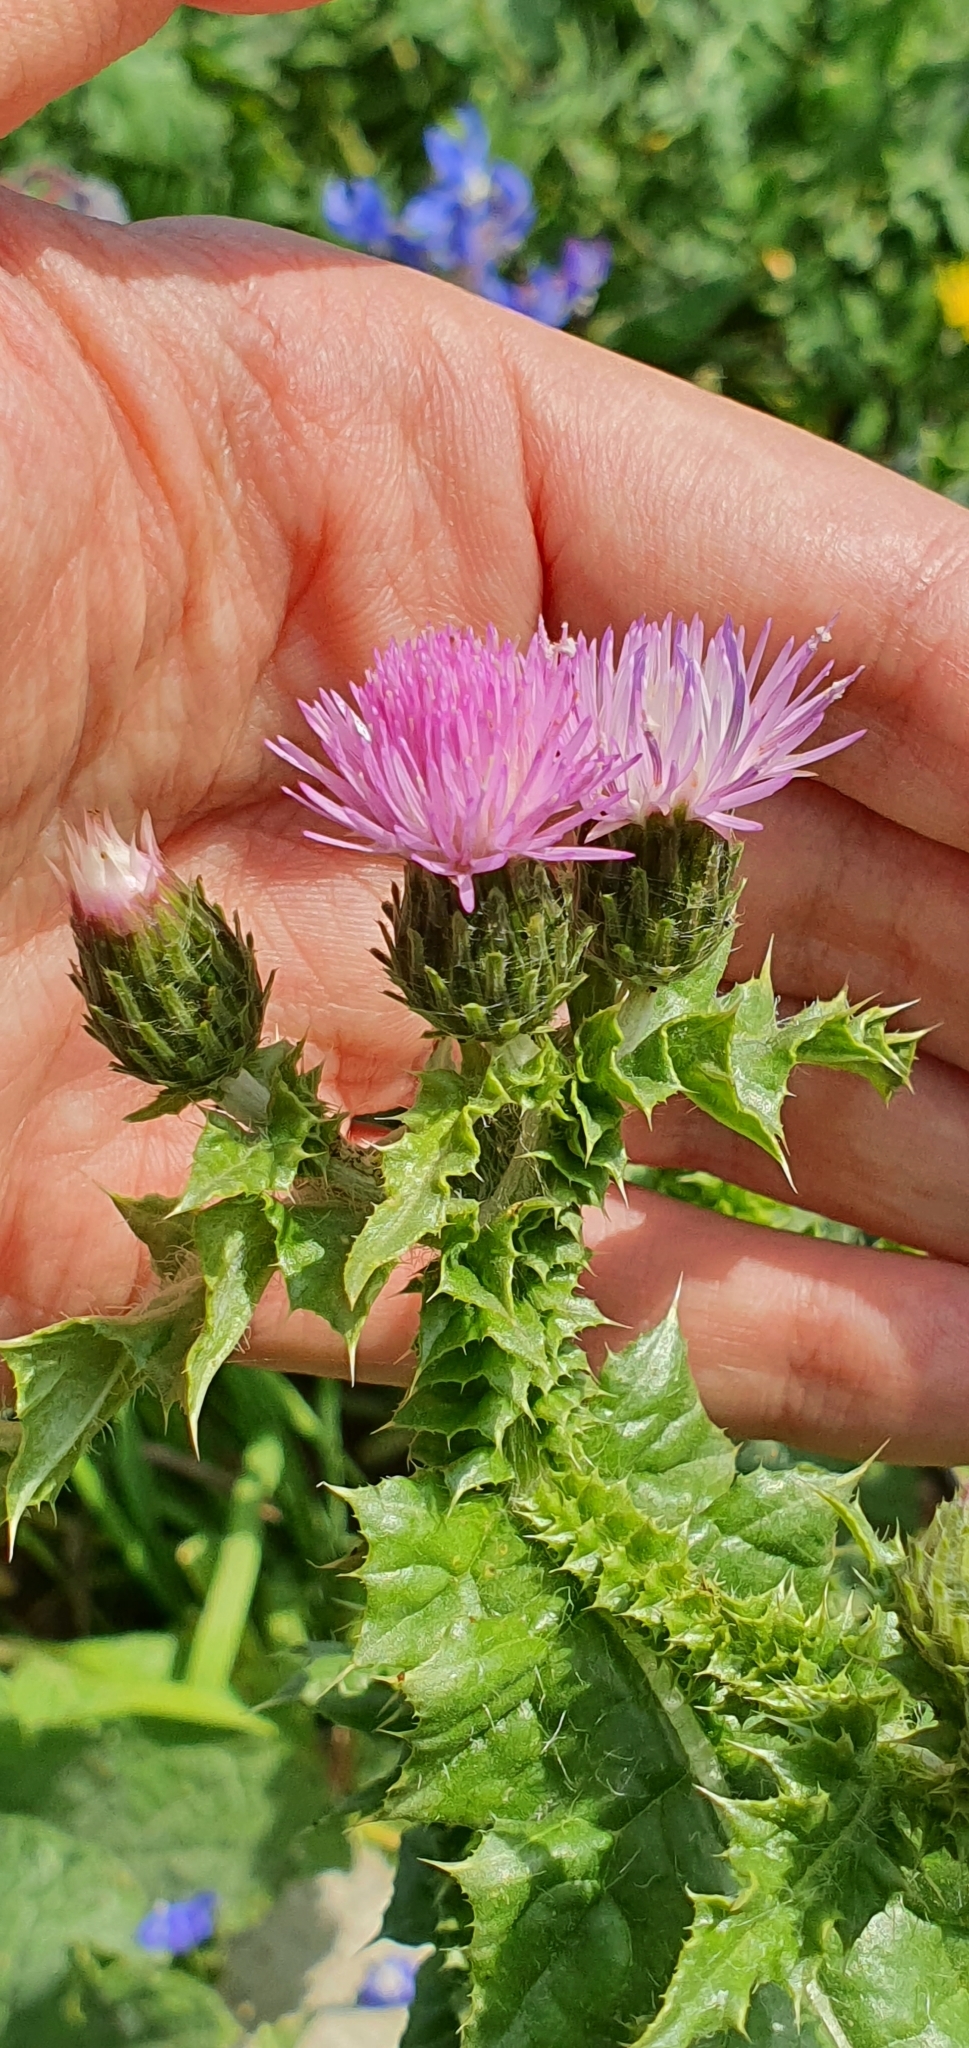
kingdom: Plantae
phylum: Tracheophyta
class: Magnoliopsida
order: Asterales
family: Asteraceae
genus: Carduus
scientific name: Carduus spachianus
